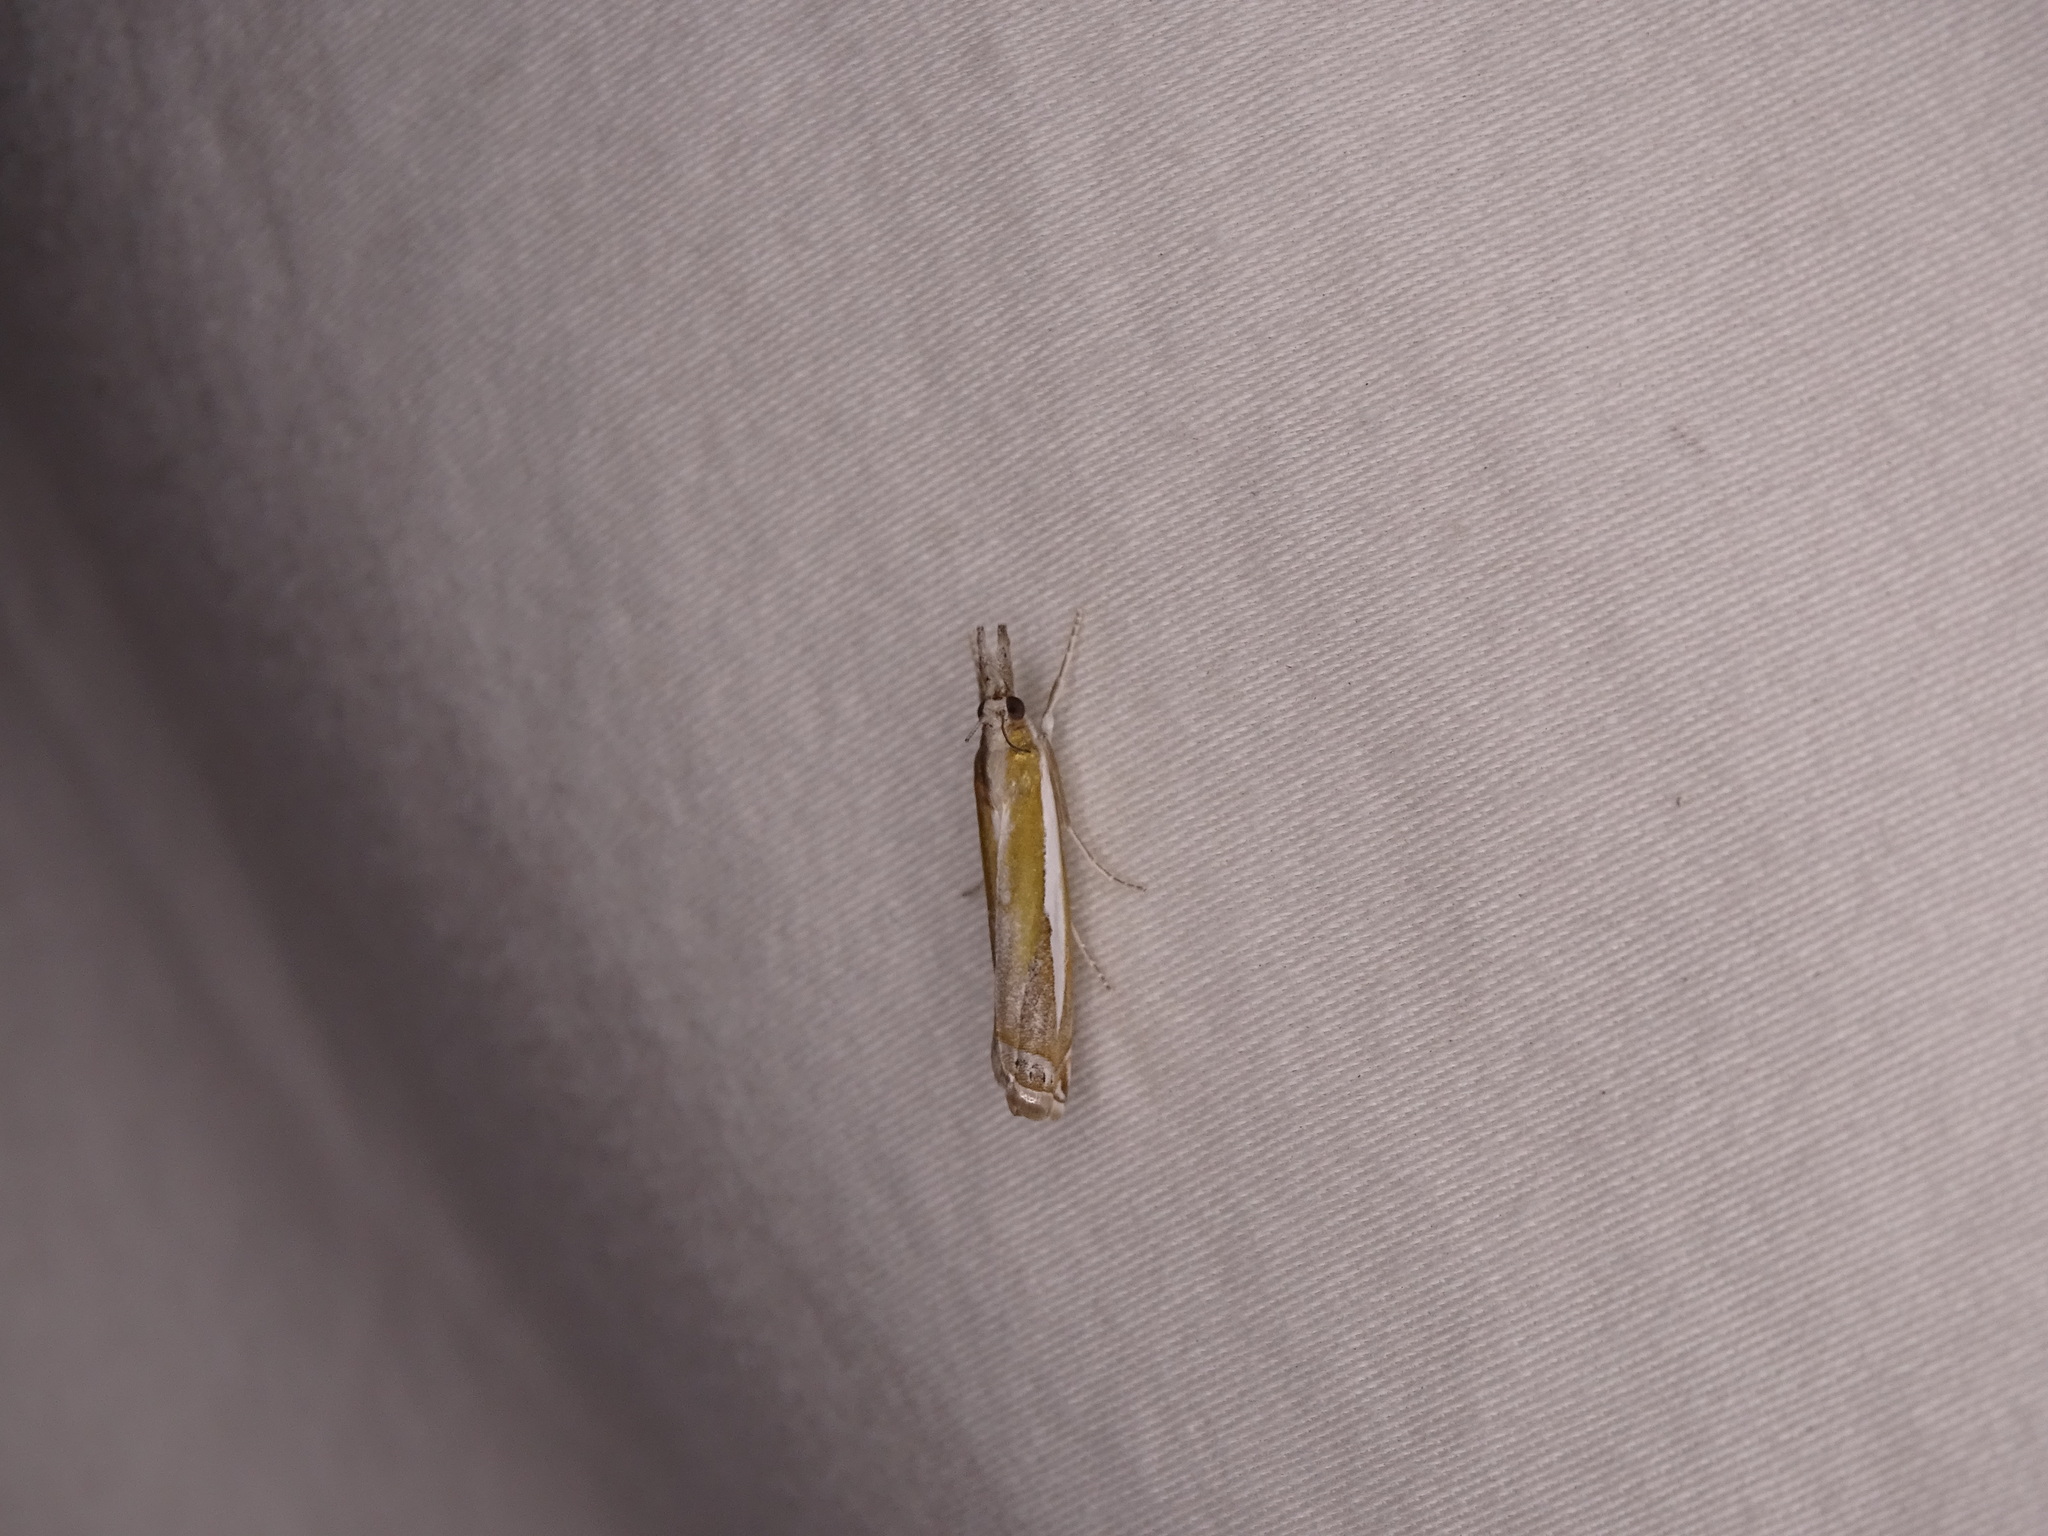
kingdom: Animalia
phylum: Arthropoda
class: Insecta
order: Lepidoptera
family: Crambidae
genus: Crambus
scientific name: Crambus praefectellus
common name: Common grass-veneer
